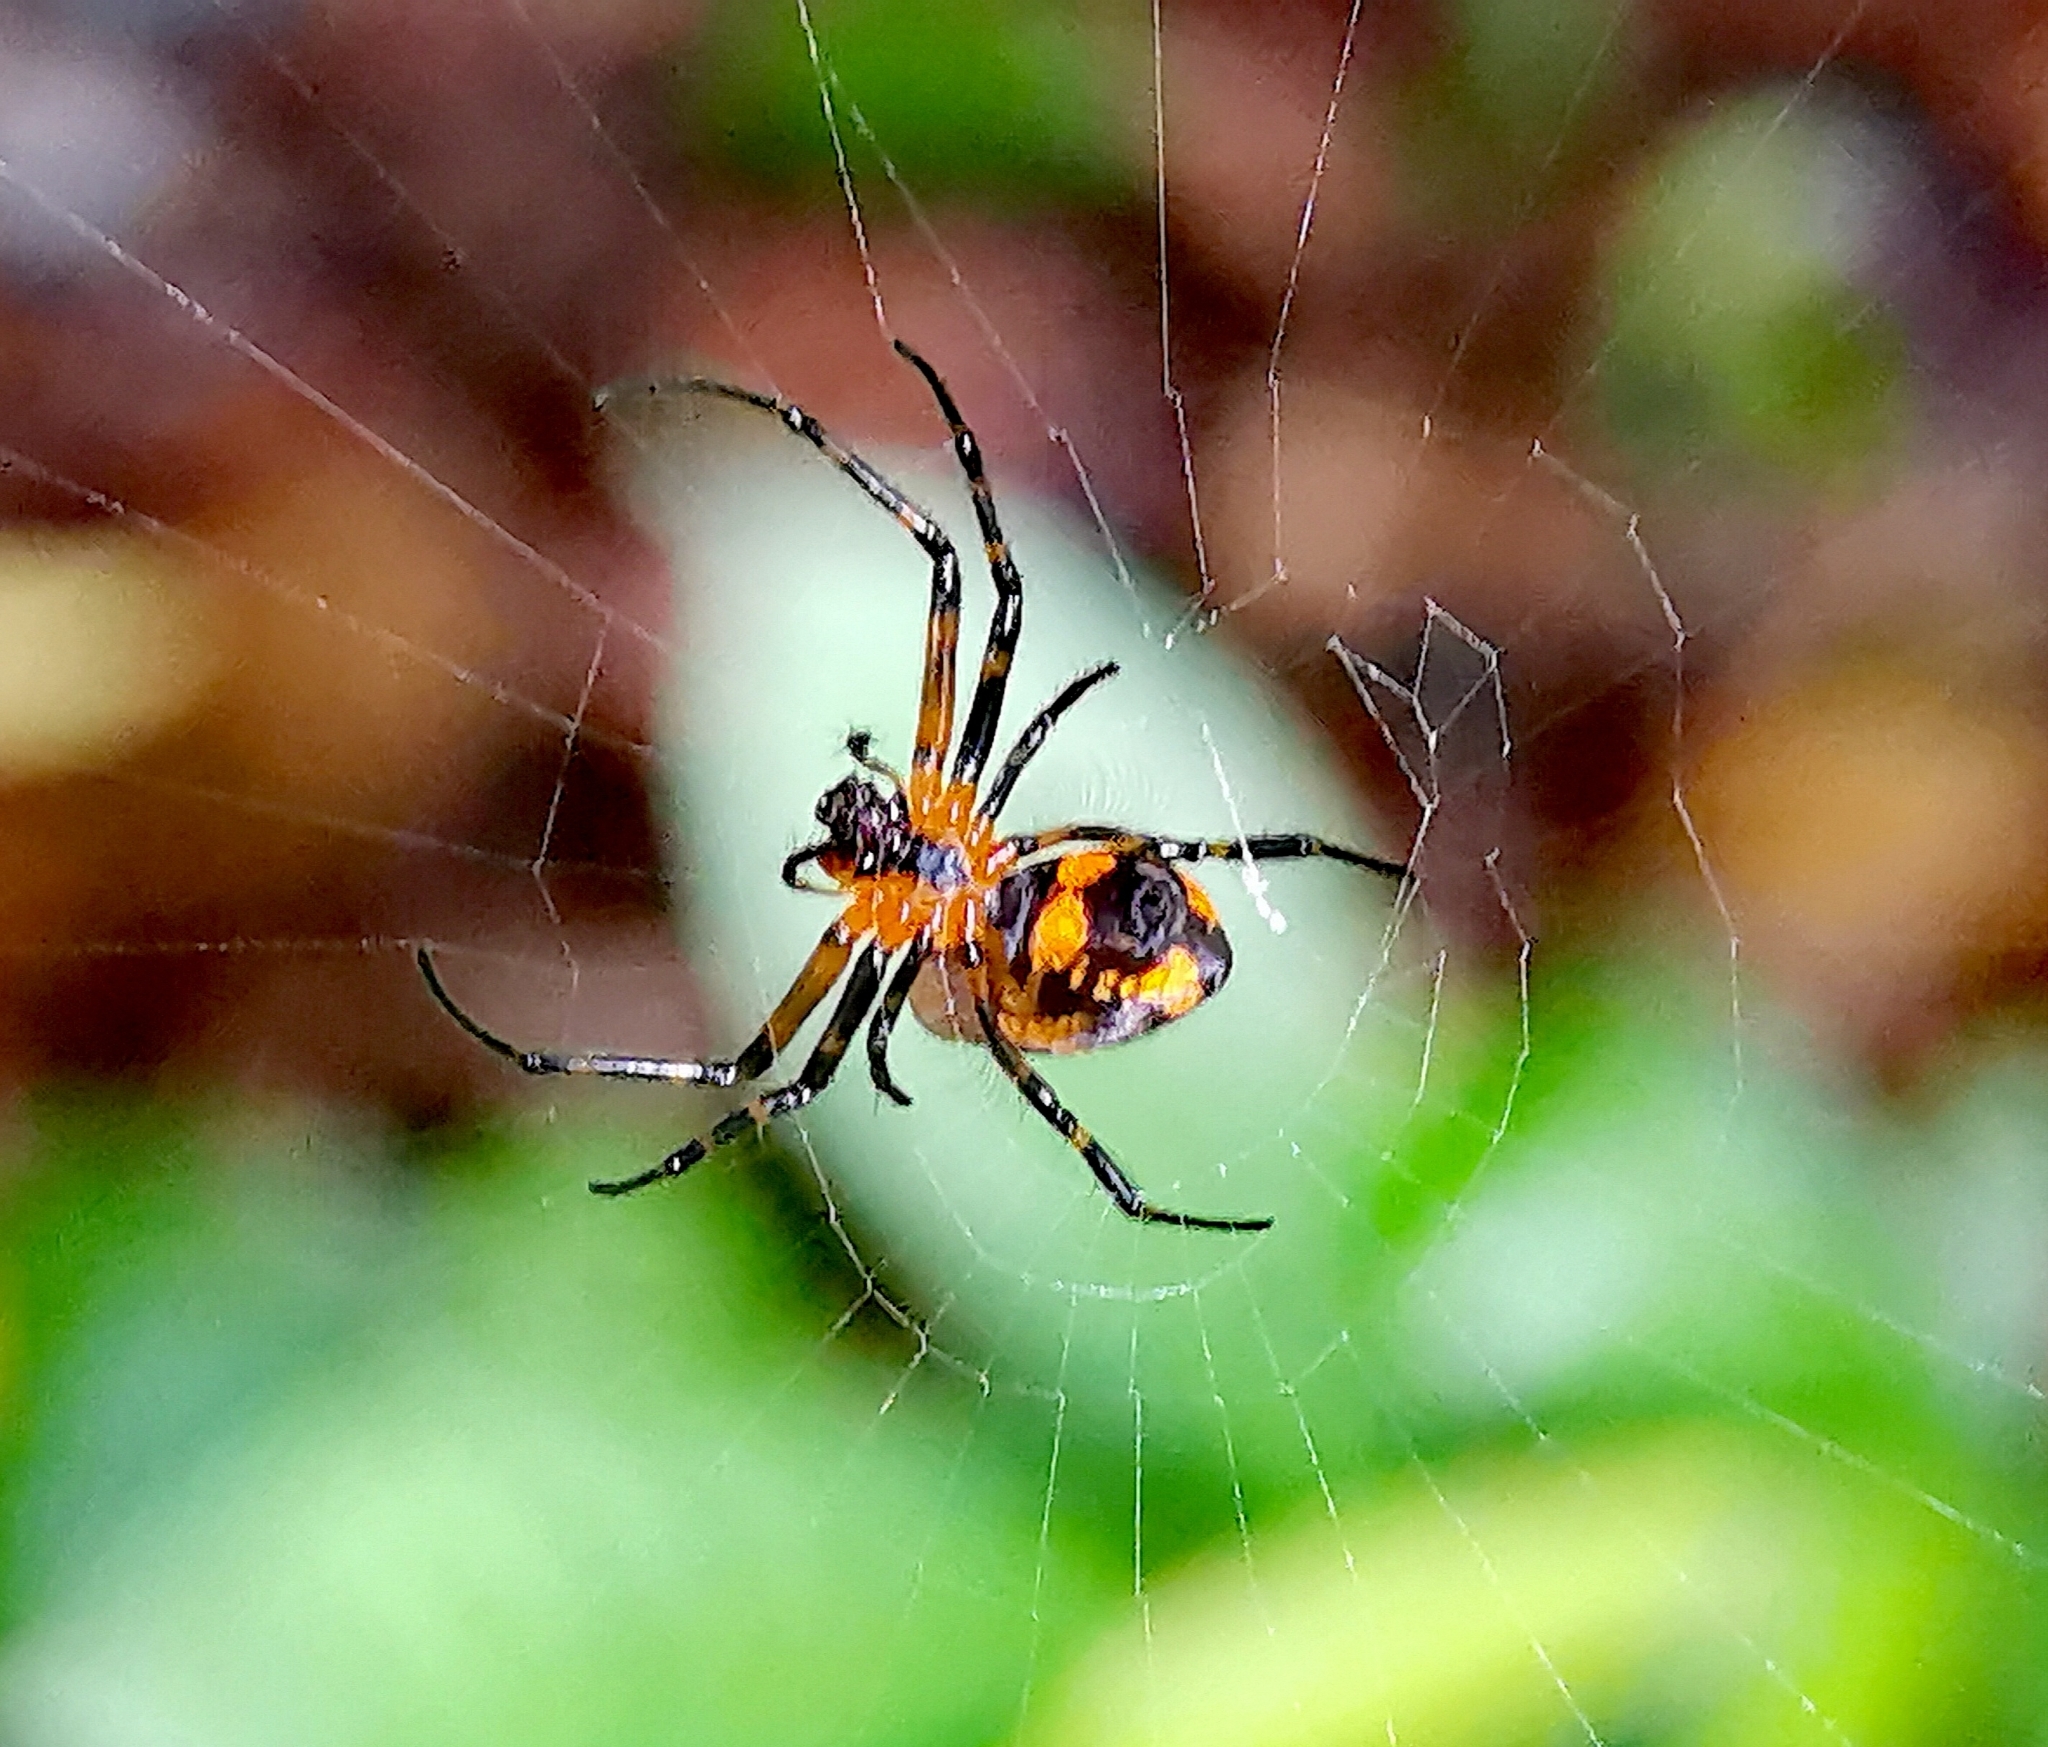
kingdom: Animalia
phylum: Arthropoda
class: Arachnida
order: Araneae
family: Tetragnathidae
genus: Leucauge
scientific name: Leucauge fastigata
